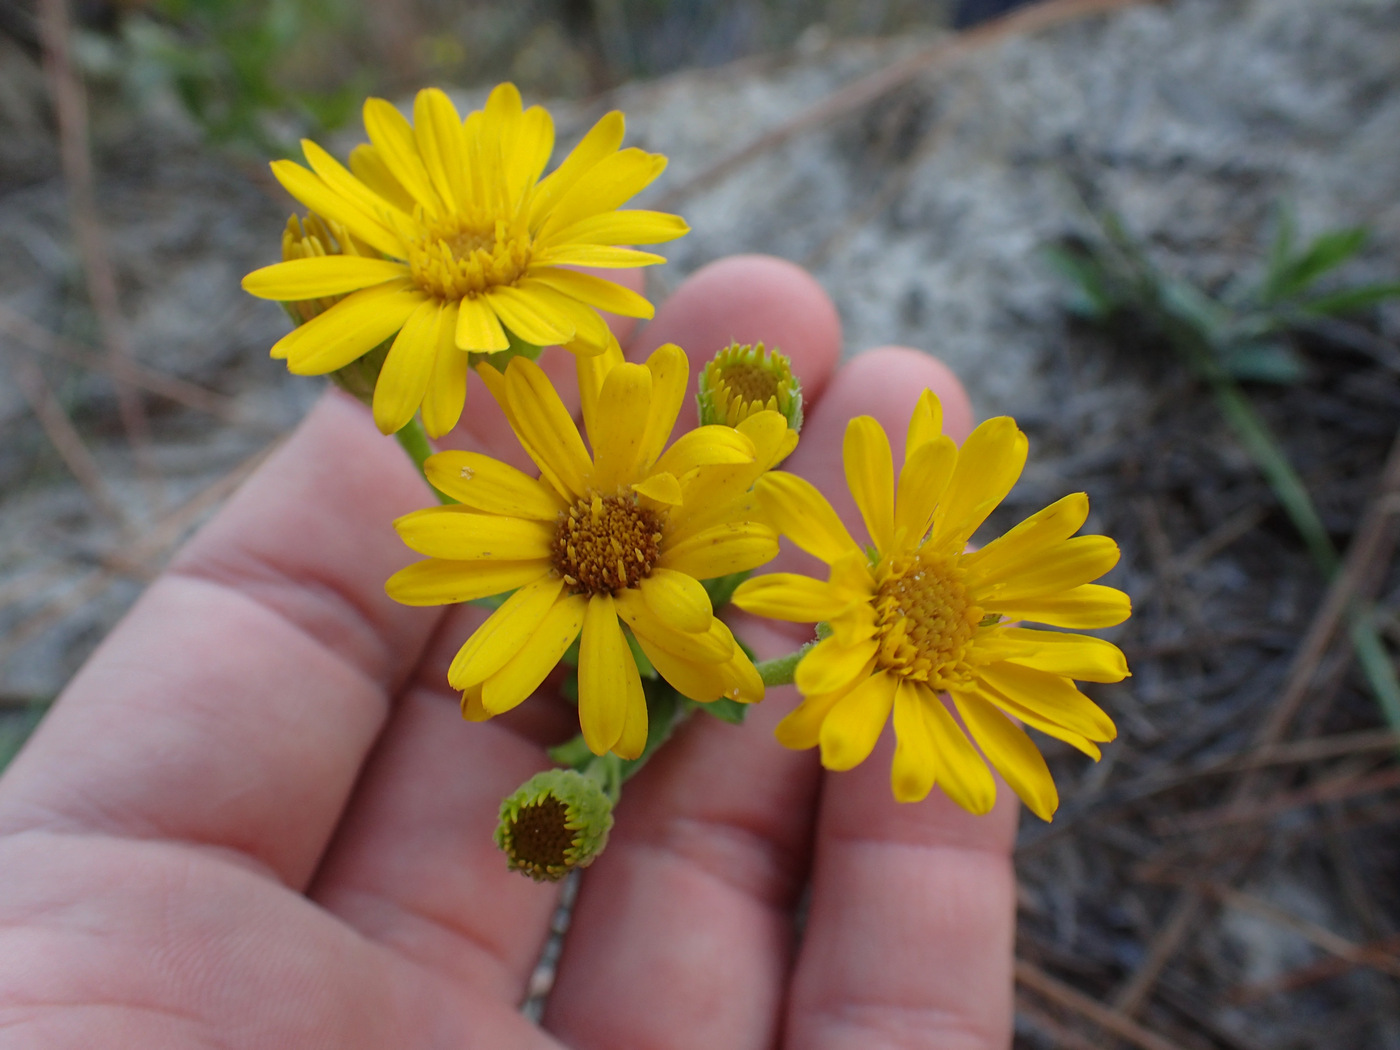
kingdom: Plantae
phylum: Tracheophyta
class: Magnoliopsida
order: Asterales
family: Asteraceae
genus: Chrysopsis
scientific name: Chrysopsis mariana
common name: Maryland golden-aster
